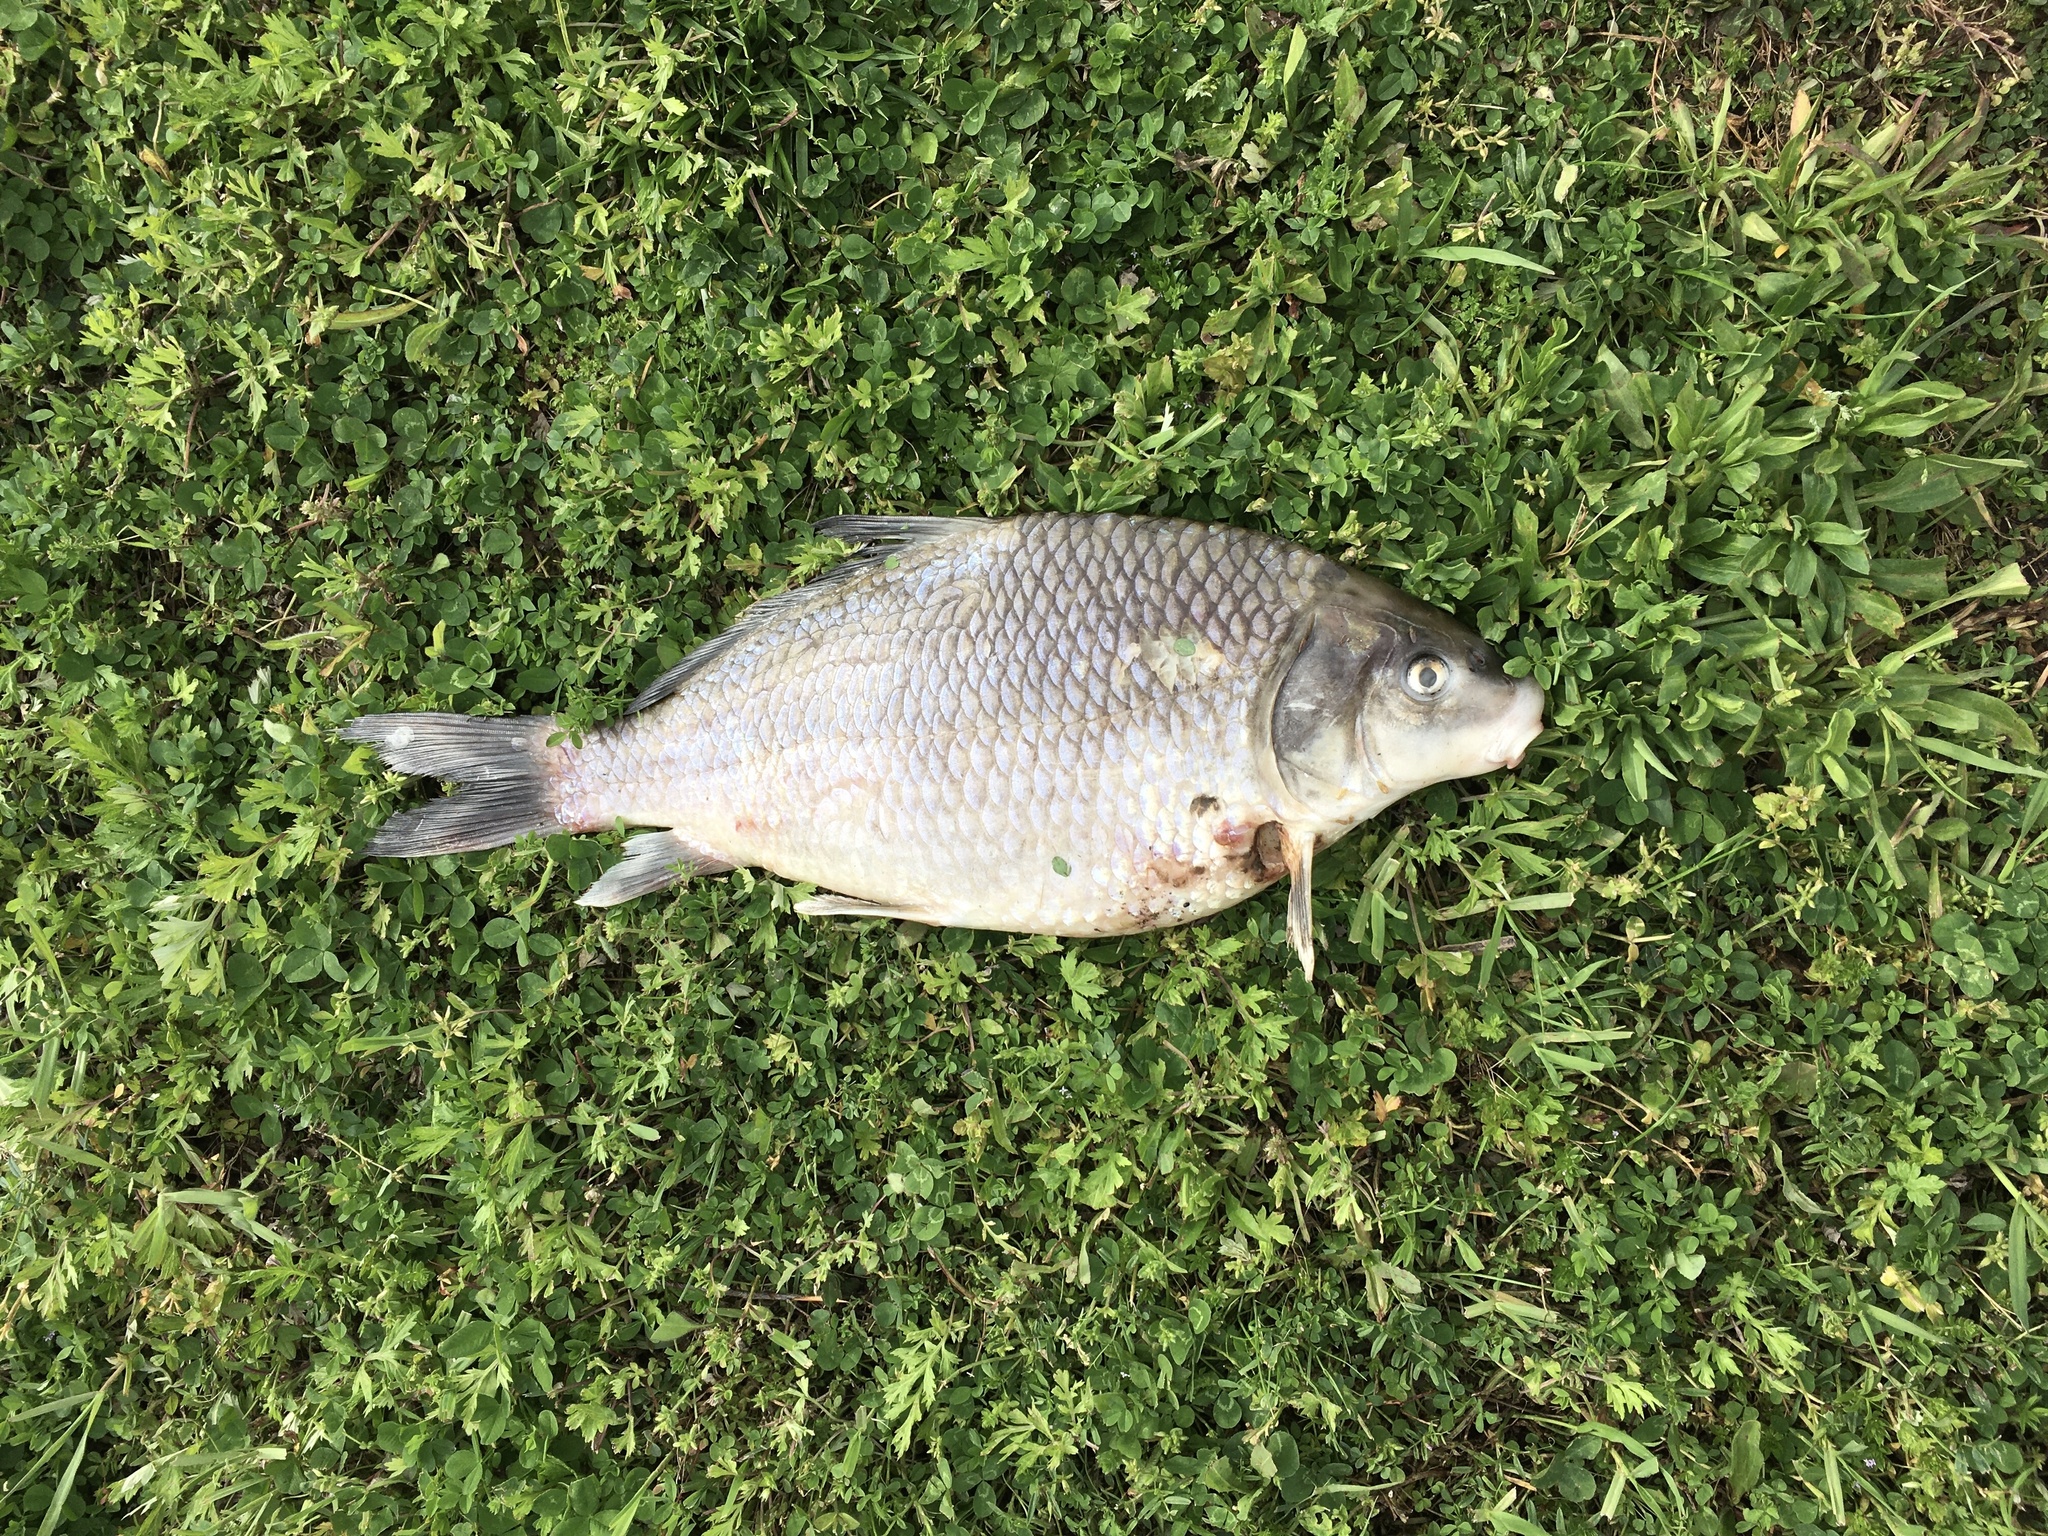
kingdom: Animalia
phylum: Chordata
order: Cypriniformes
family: Catostomidae
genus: Carpiodes
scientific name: Carpiodes cyprinus
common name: Quillback
